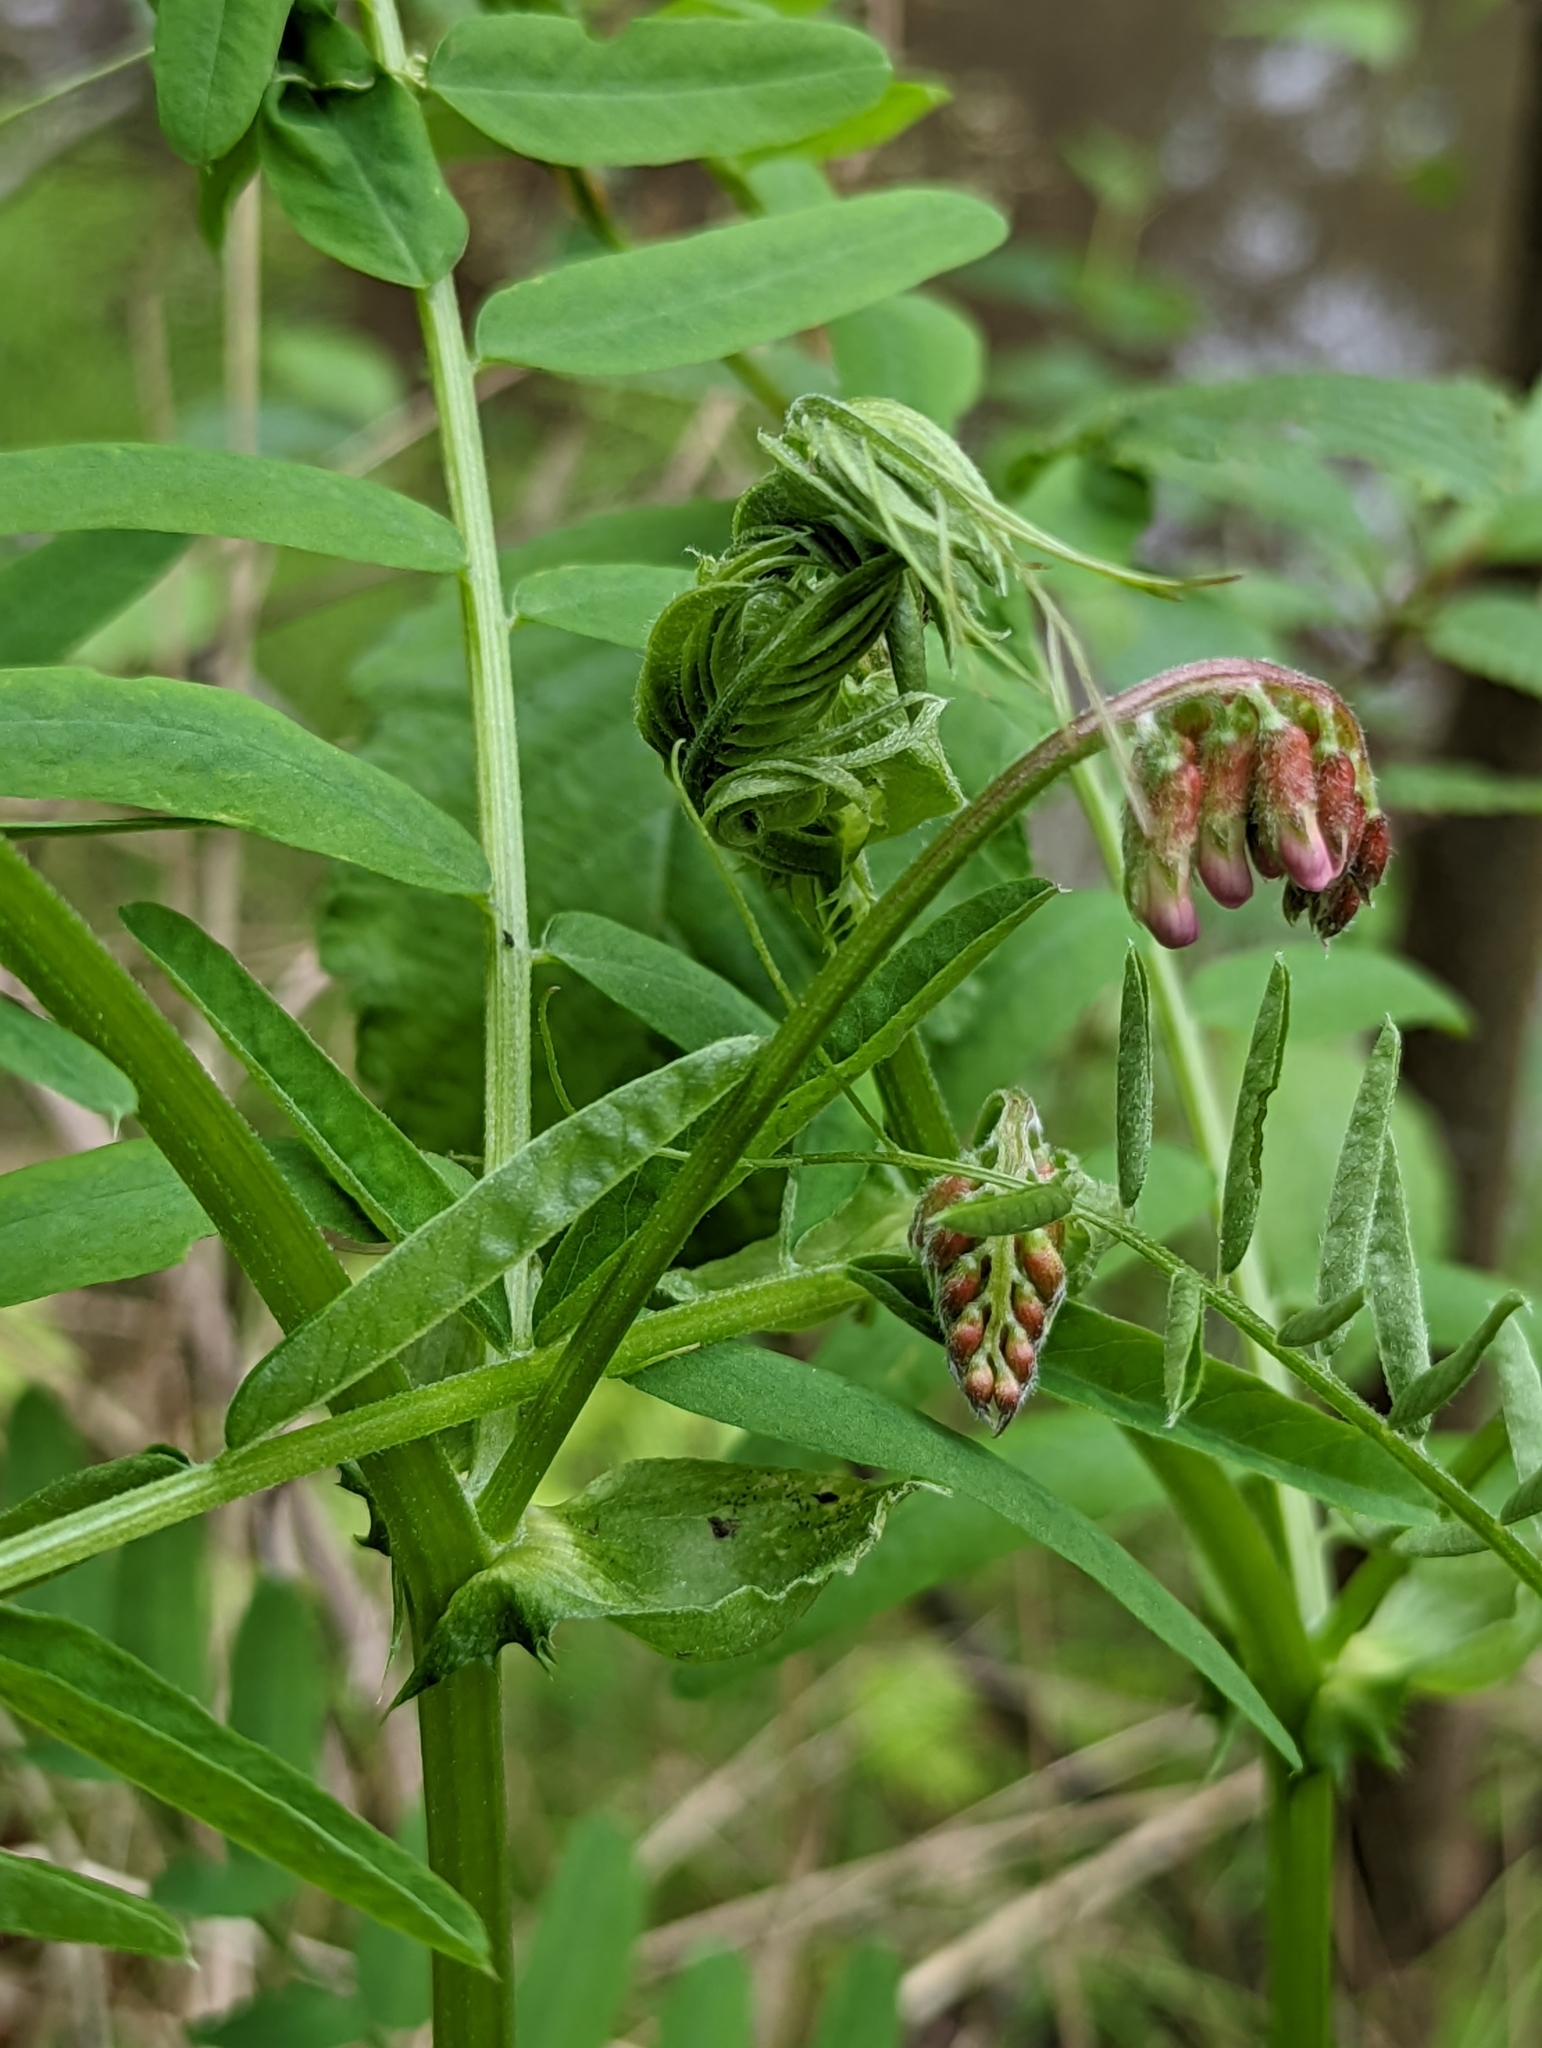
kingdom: Plantae
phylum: Tracheophyta
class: Magnoliopsida
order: Fabales
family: Fabaceae
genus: Vicia
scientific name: Vicia
